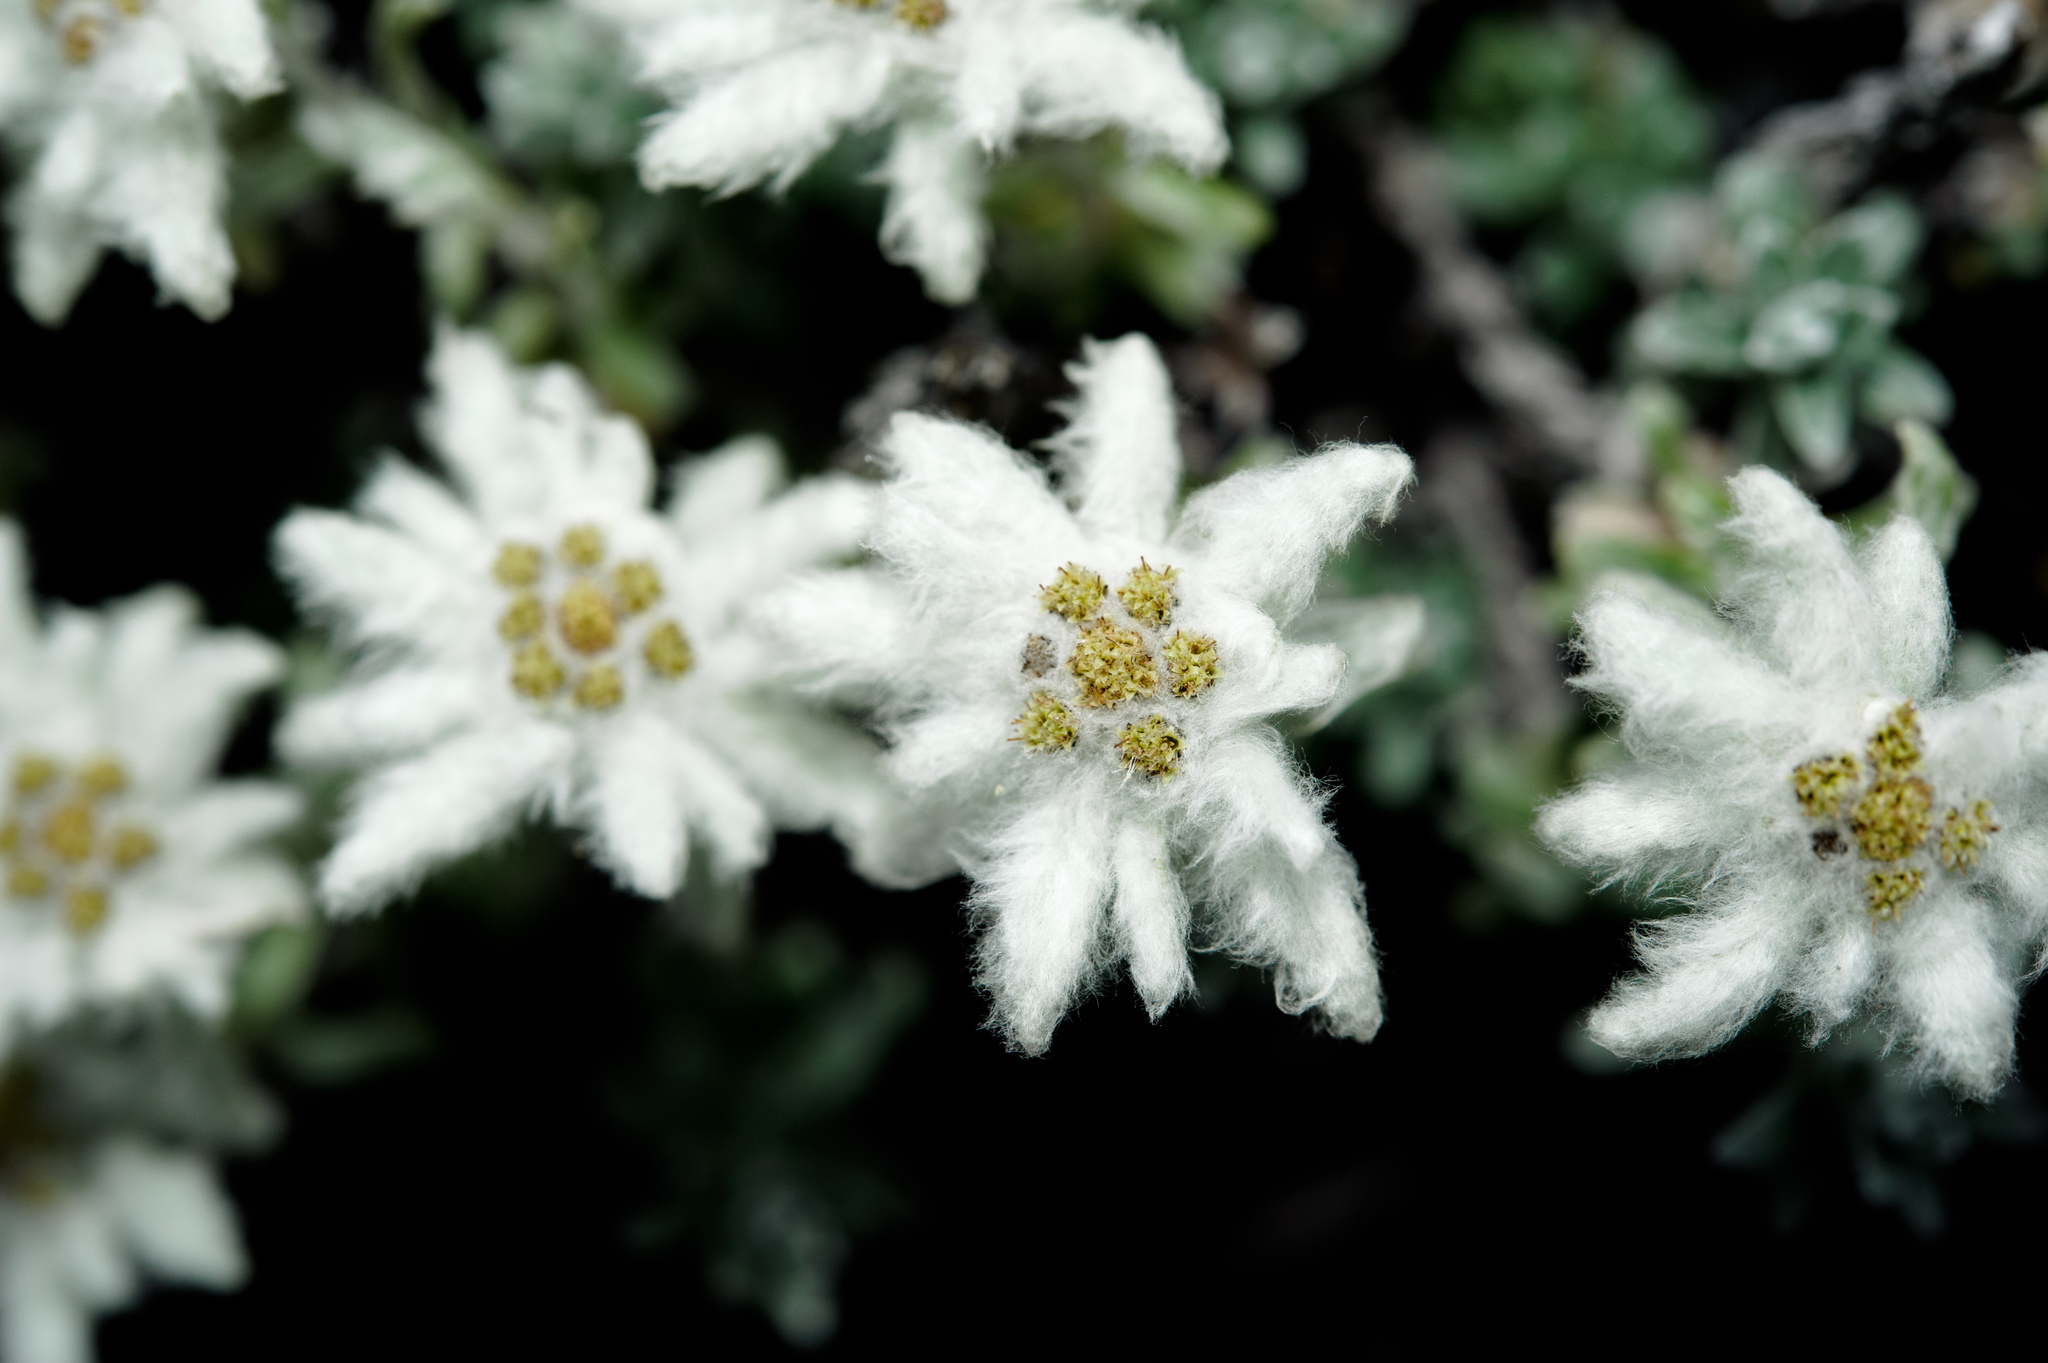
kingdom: Plantae
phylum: Tracheophyta
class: Magnoliopsida
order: Asterales
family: Asteraceae
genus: Leontopodium
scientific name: Leontopodium microphyllum
